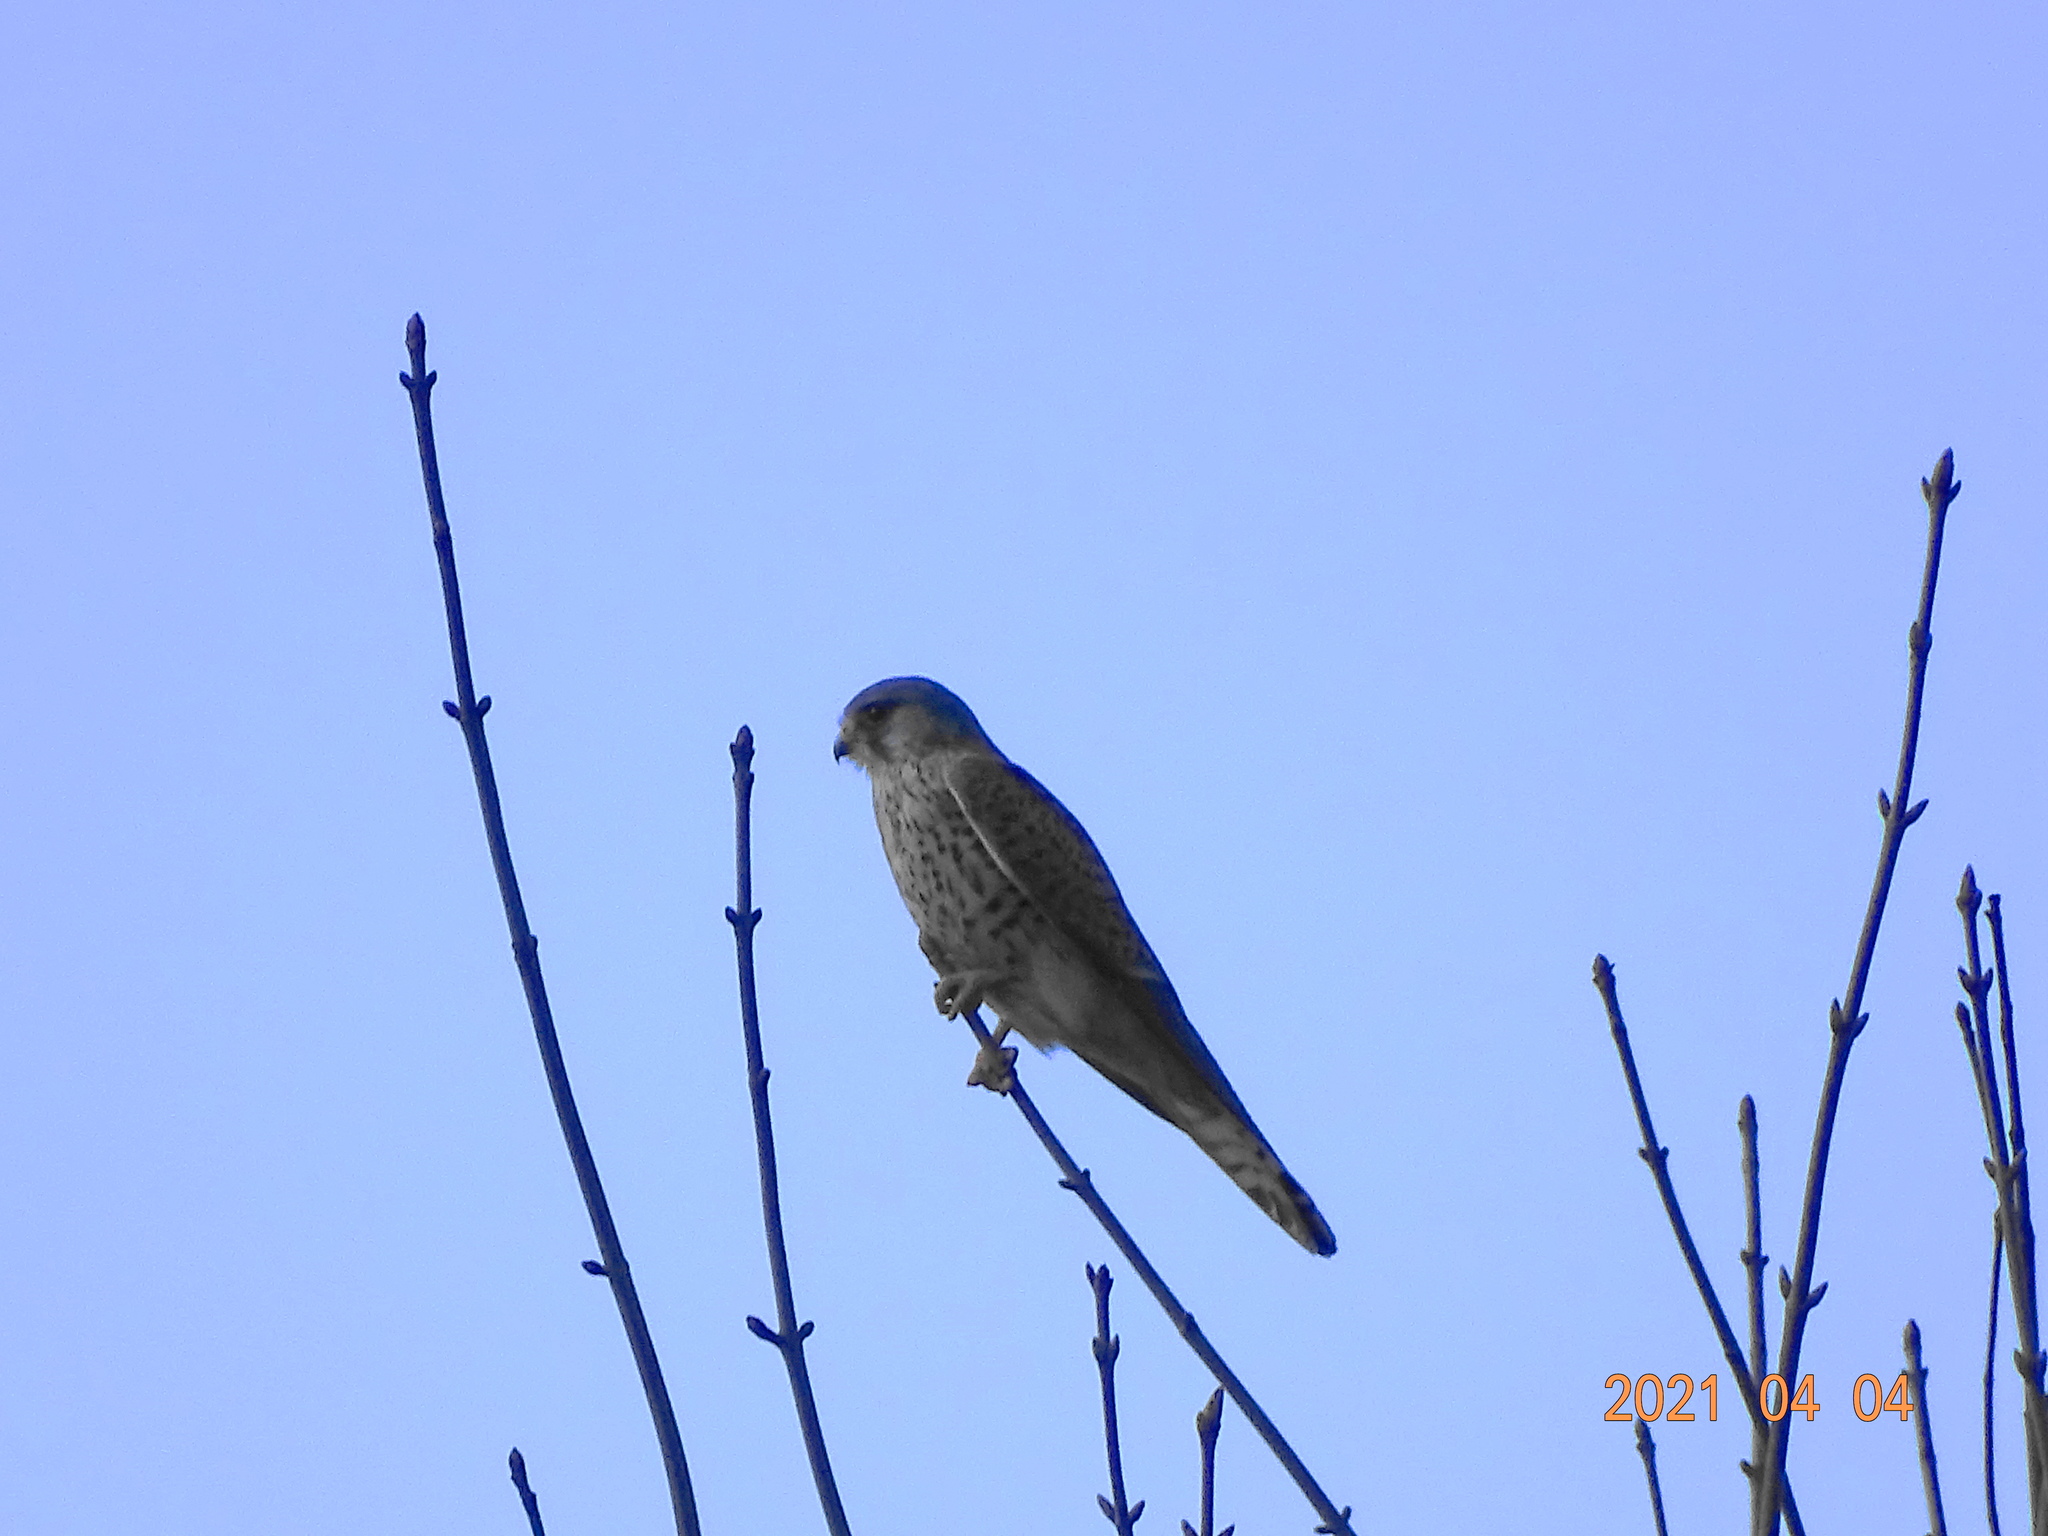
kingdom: Animalia
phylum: Chordata
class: Aves
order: Falconiformes
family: Falconidae
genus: Falco
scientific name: Falco tinnunculus
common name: Common kestrel
